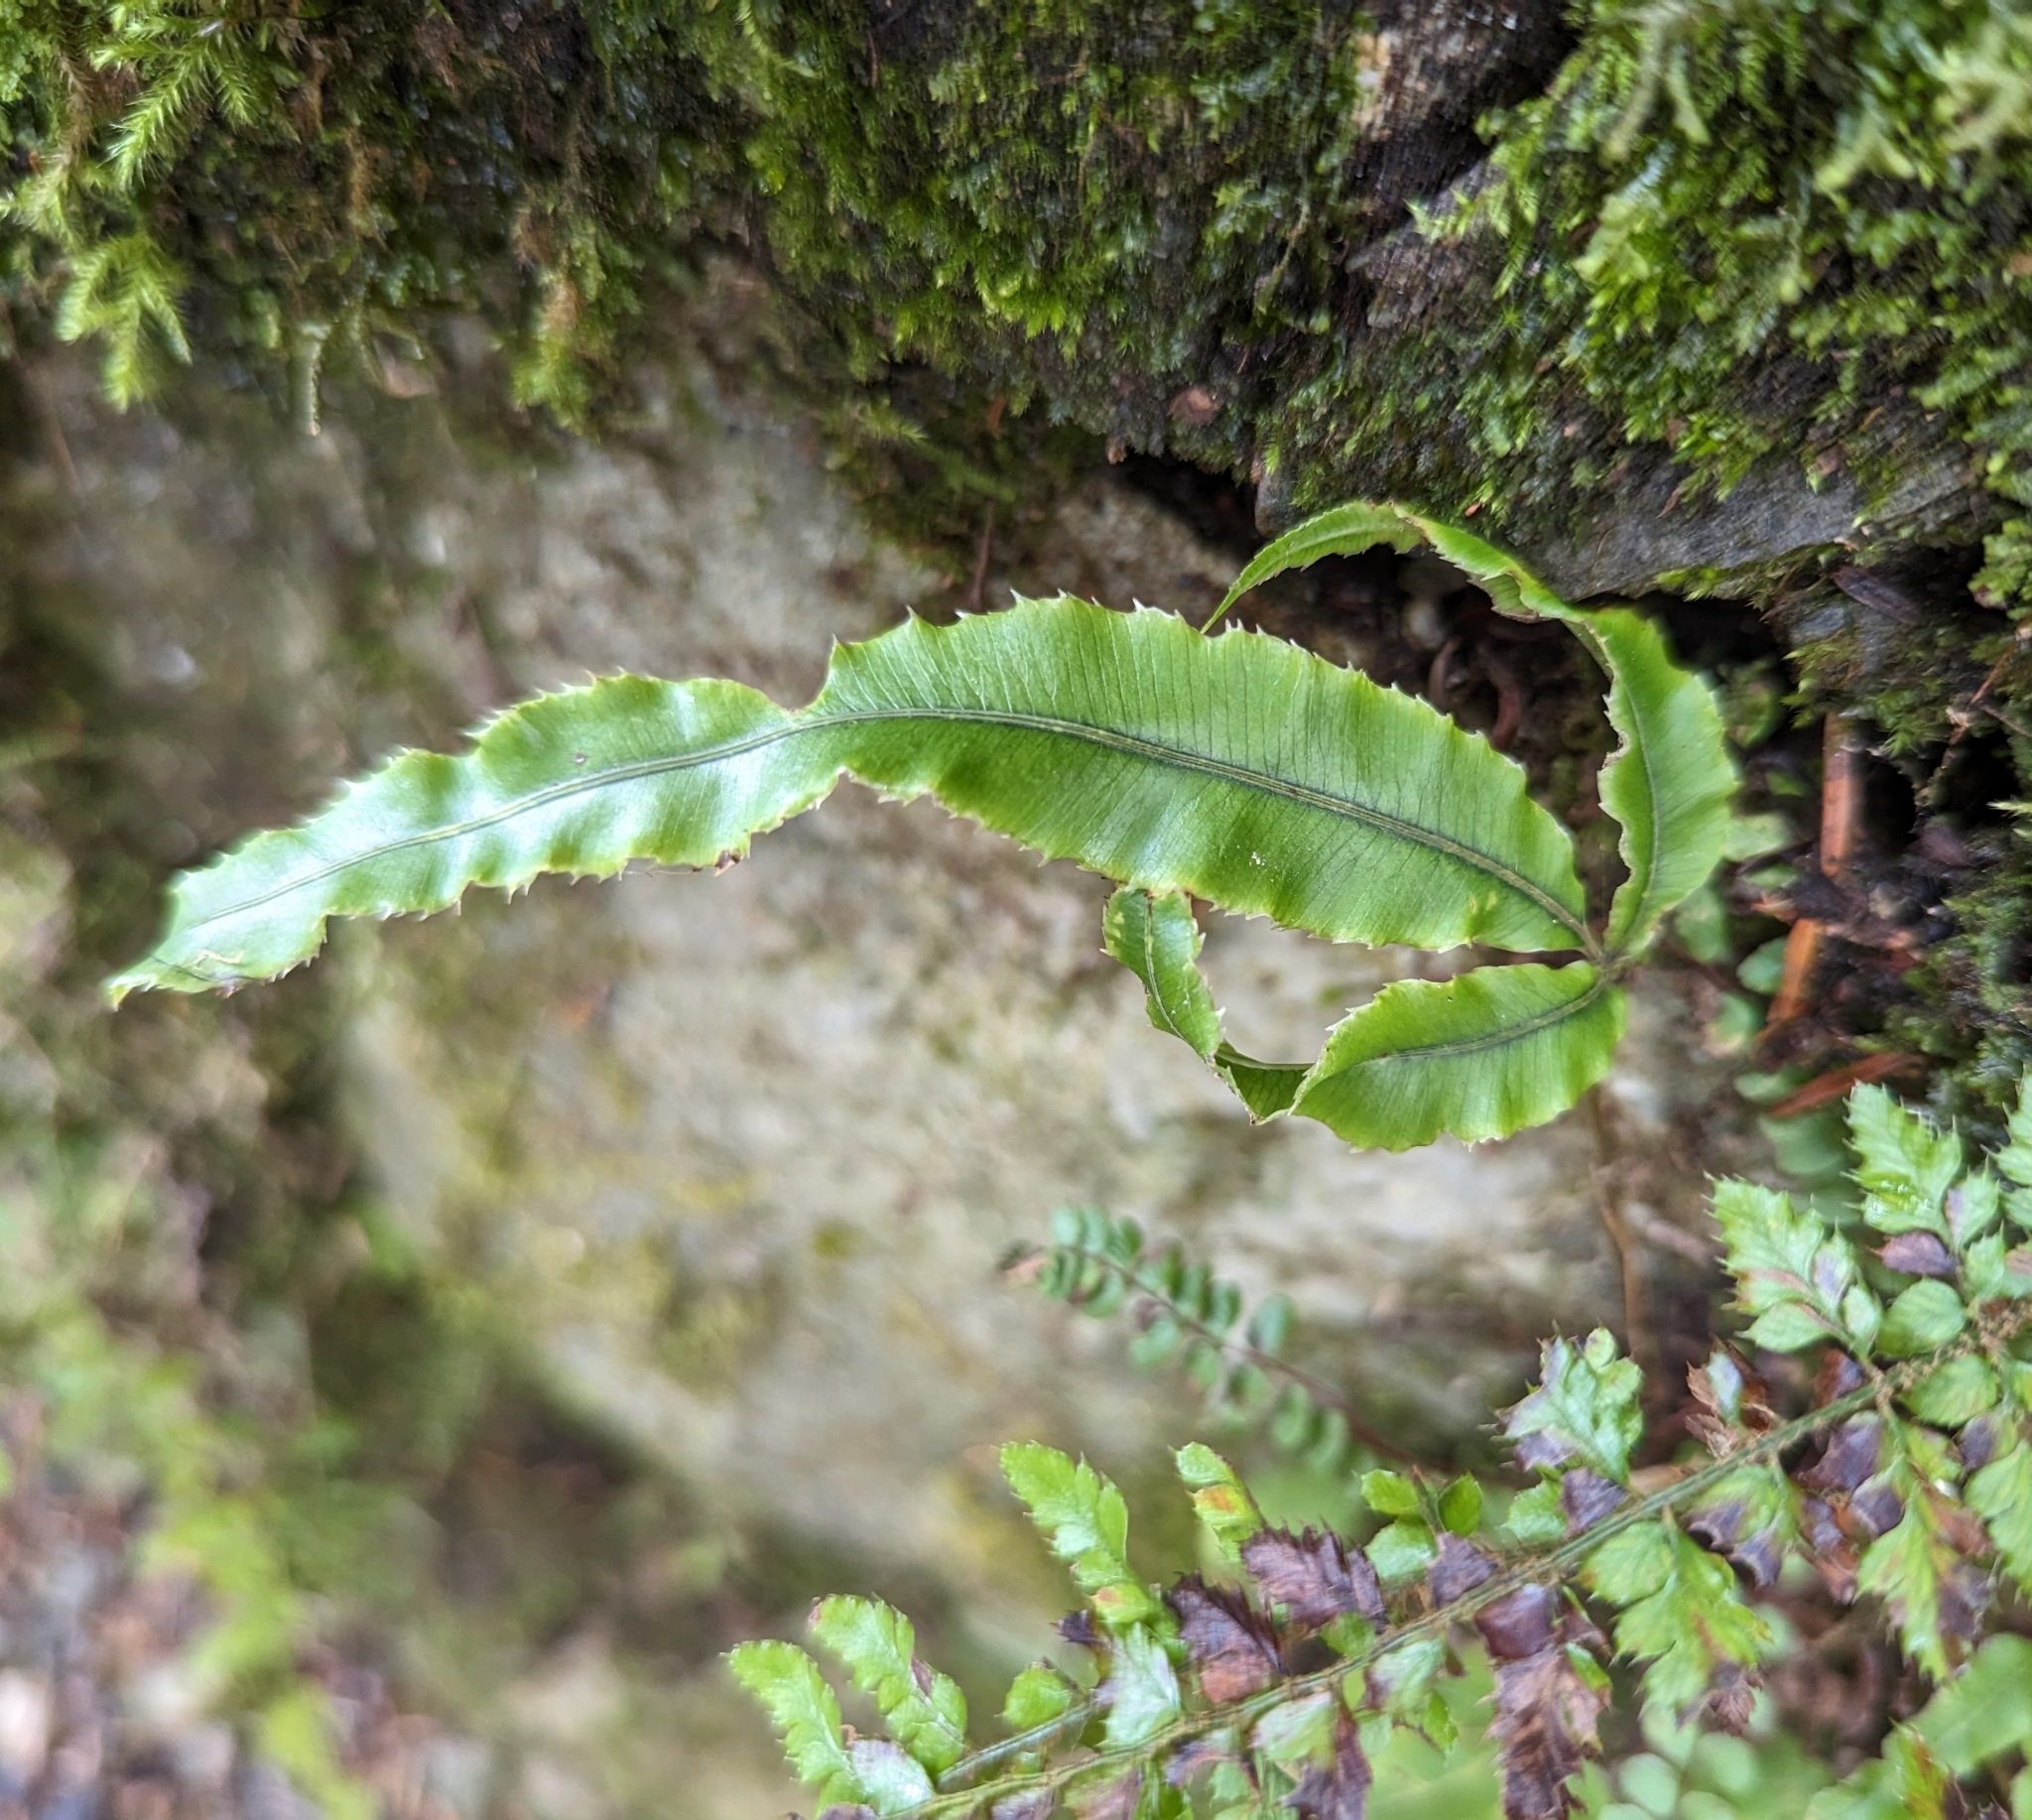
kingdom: Plantae
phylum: Tracheophyta
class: Polypodiopsida
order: Polypodiales
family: Pteridaceae
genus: Pteris
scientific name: Pteris cretica
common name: Ribbon fern
